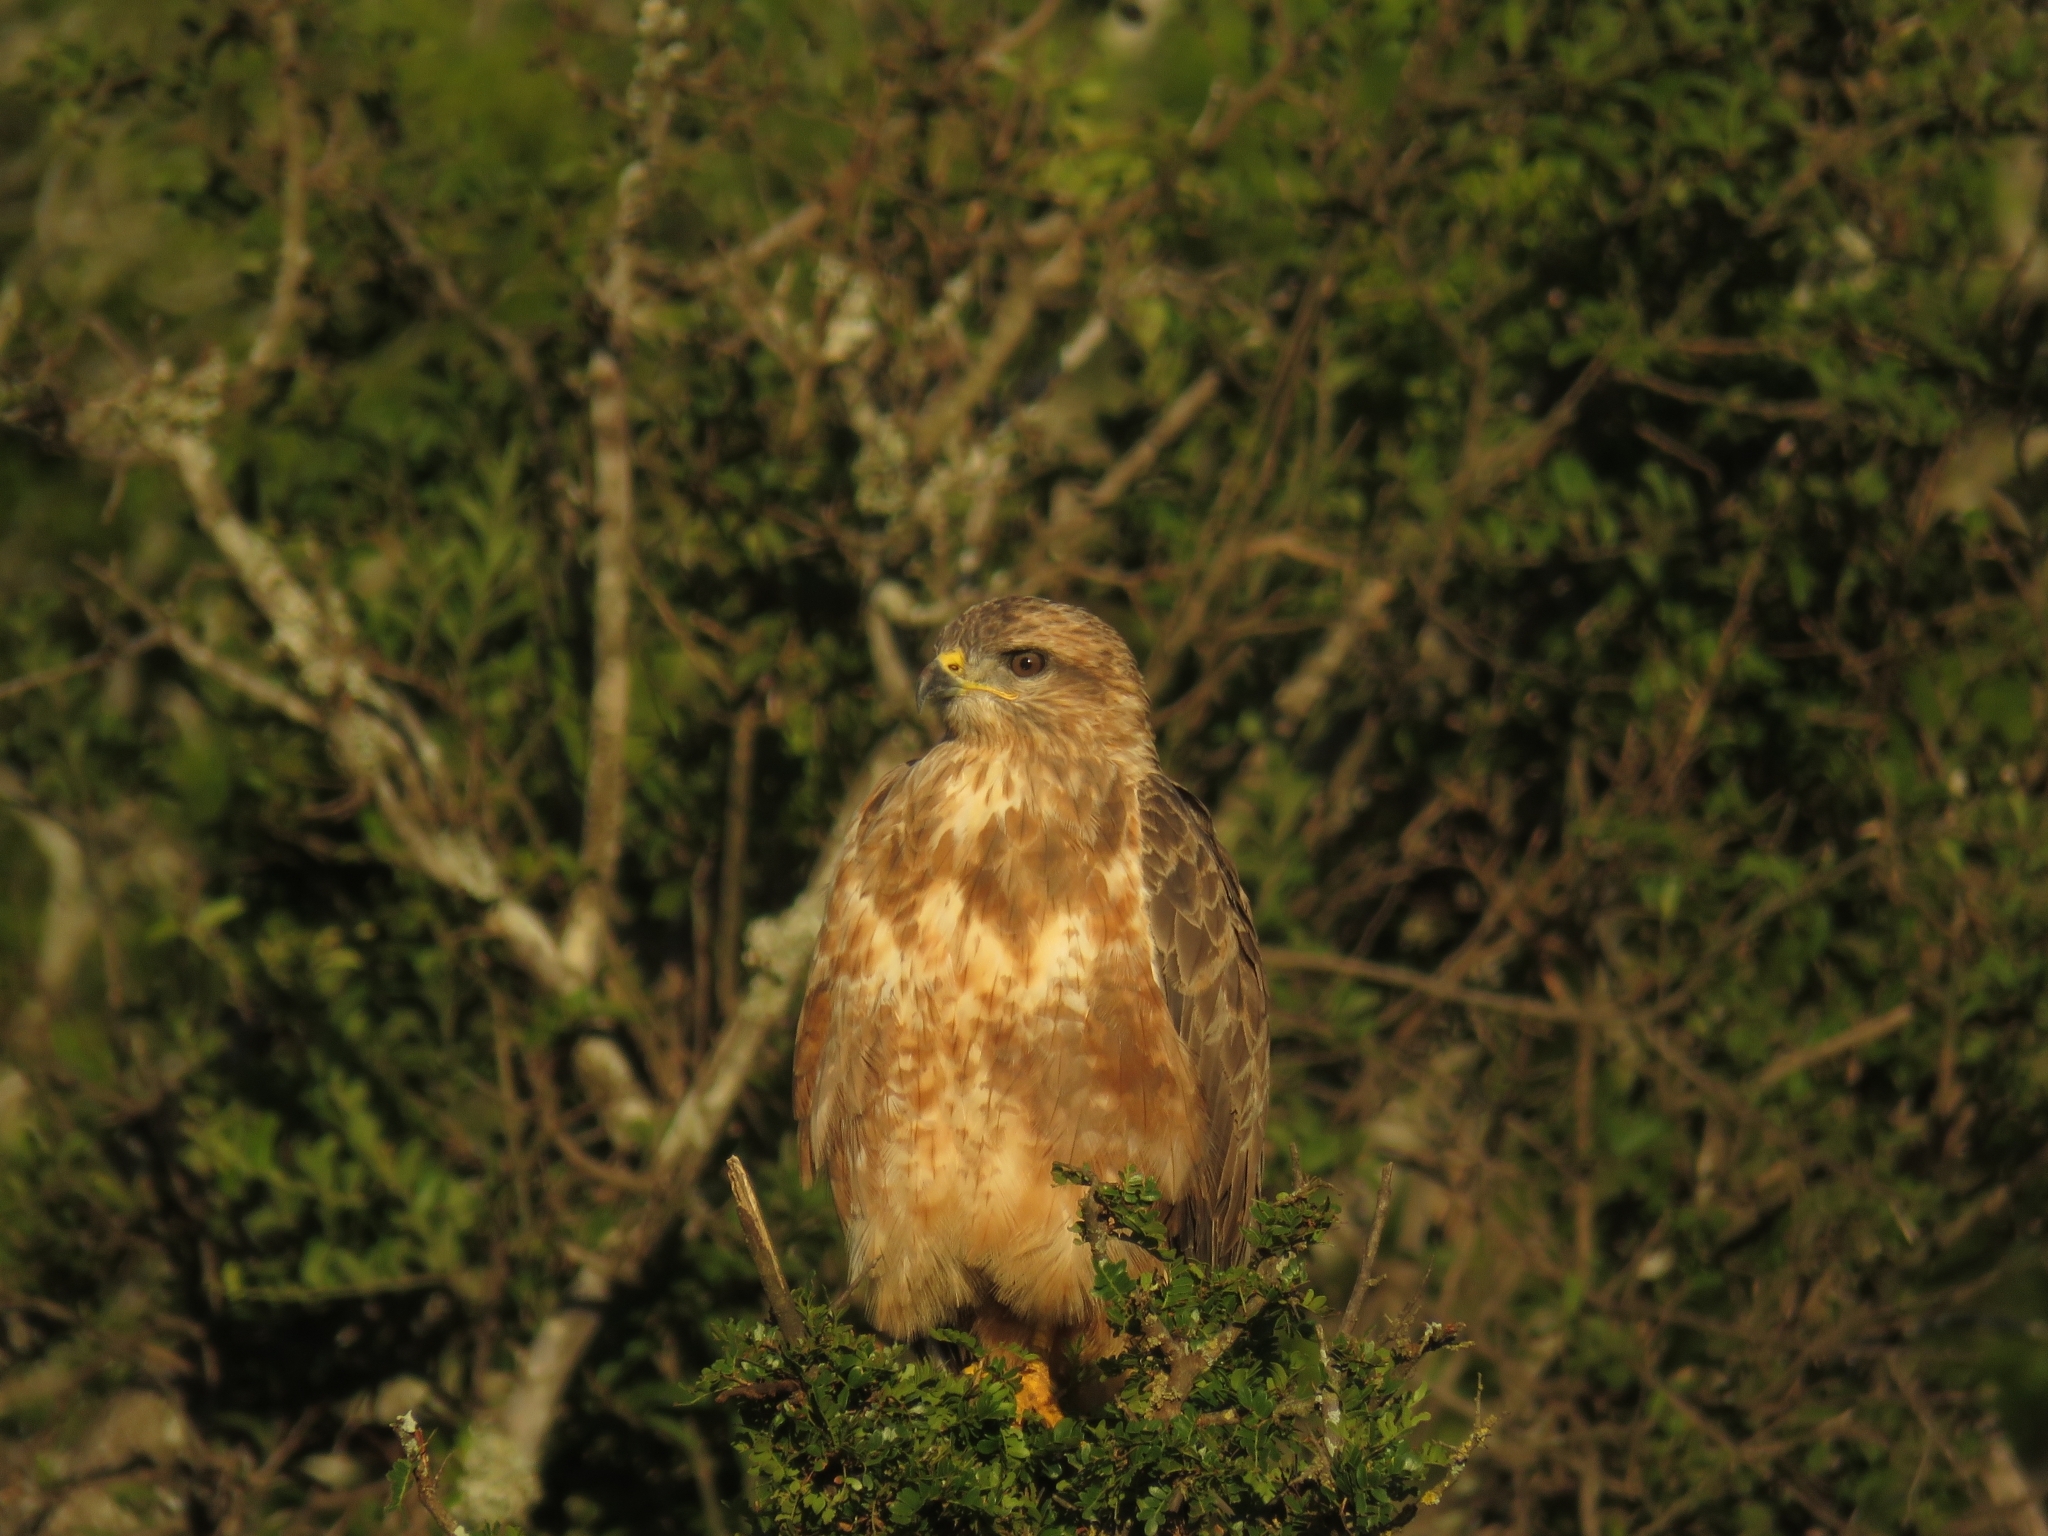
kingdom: Animalia
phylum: Chordata
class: Aves
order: Accipitriformes
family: Accipitridae
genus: Buteo
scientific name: Buteo buteo
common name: Common buzzard
